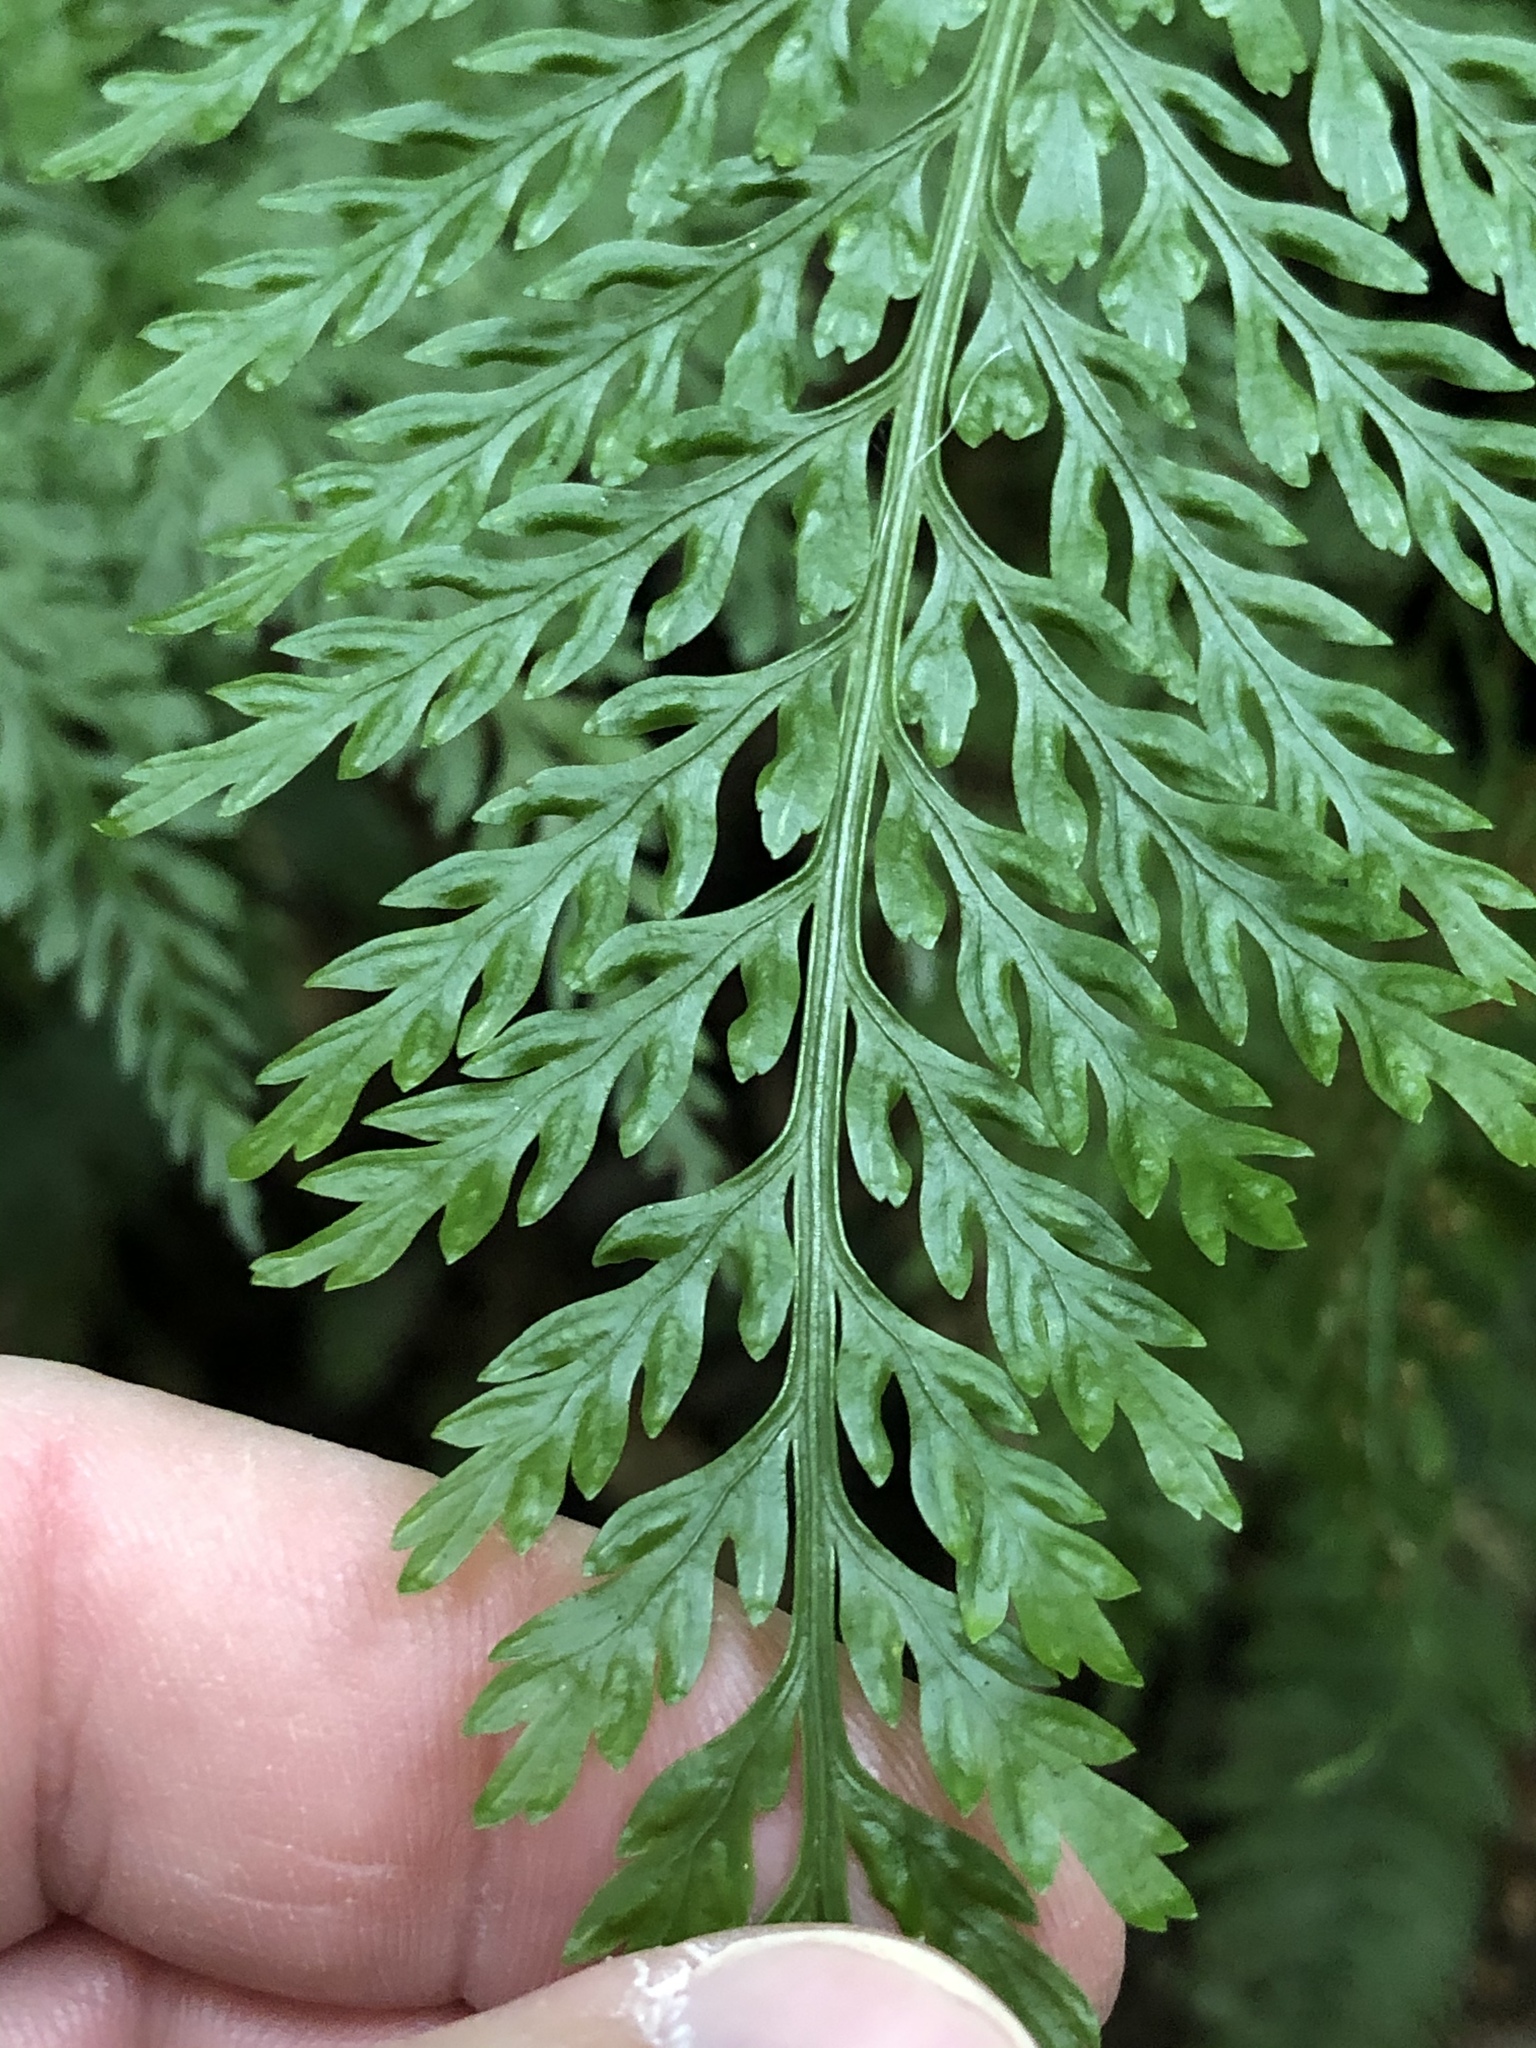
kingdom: Plantae
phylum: Tracheophyta
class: Polypodiopsida
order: Polypodiales
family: Aspleniaceae
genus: Asplenium
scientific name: Asplenium
